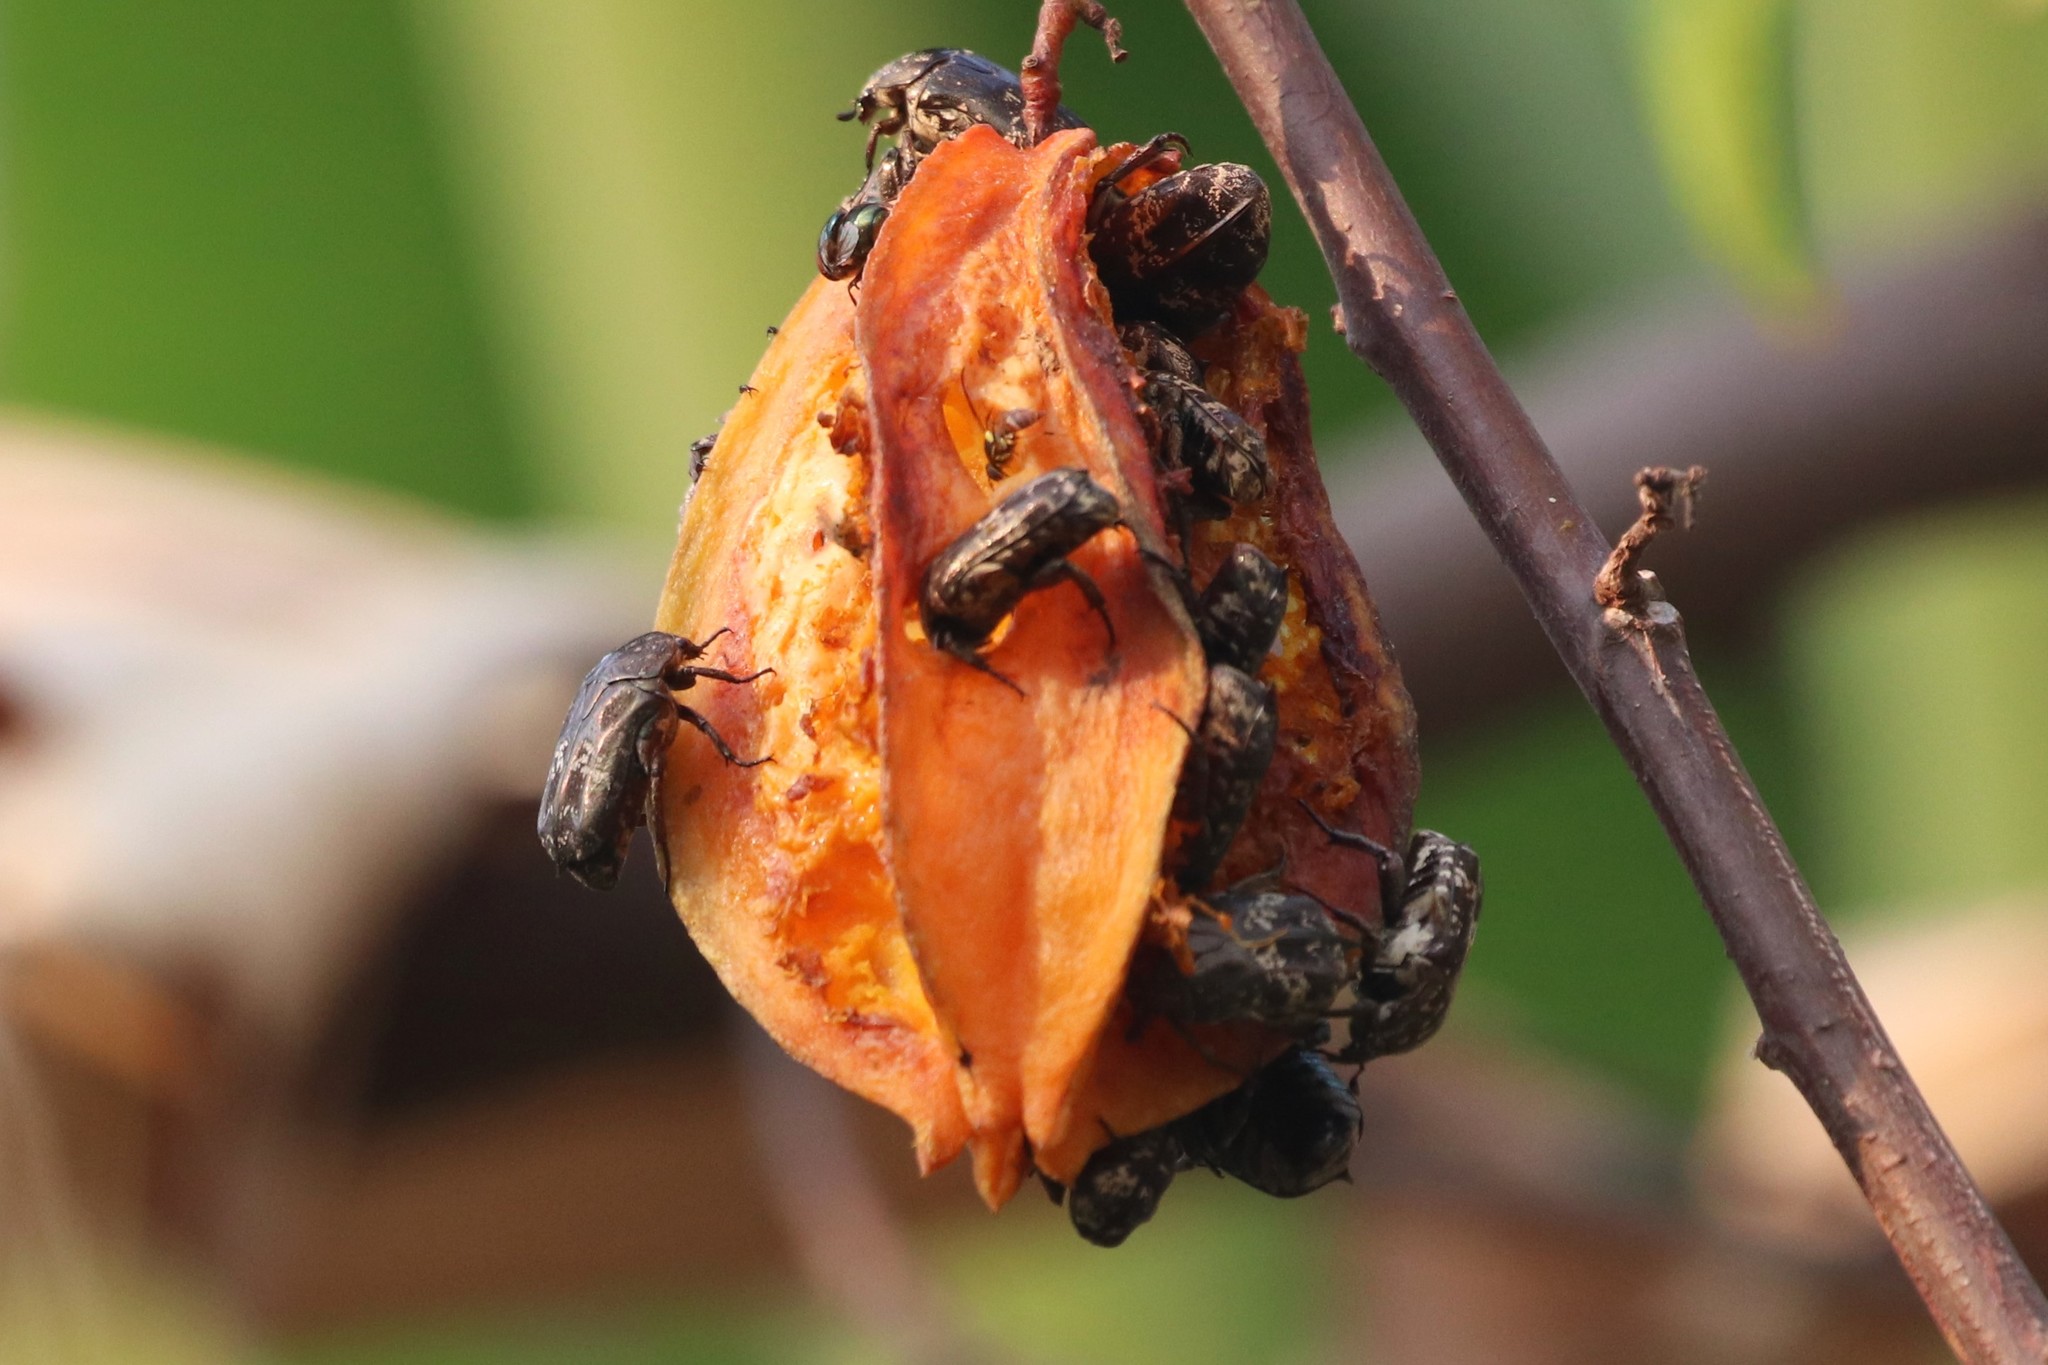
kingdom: Animalia
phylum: Arthropoda
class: Insecta
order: Coleoptera
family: Scarabaeidae
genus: Protaetia
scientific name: Protaetia acuminata
